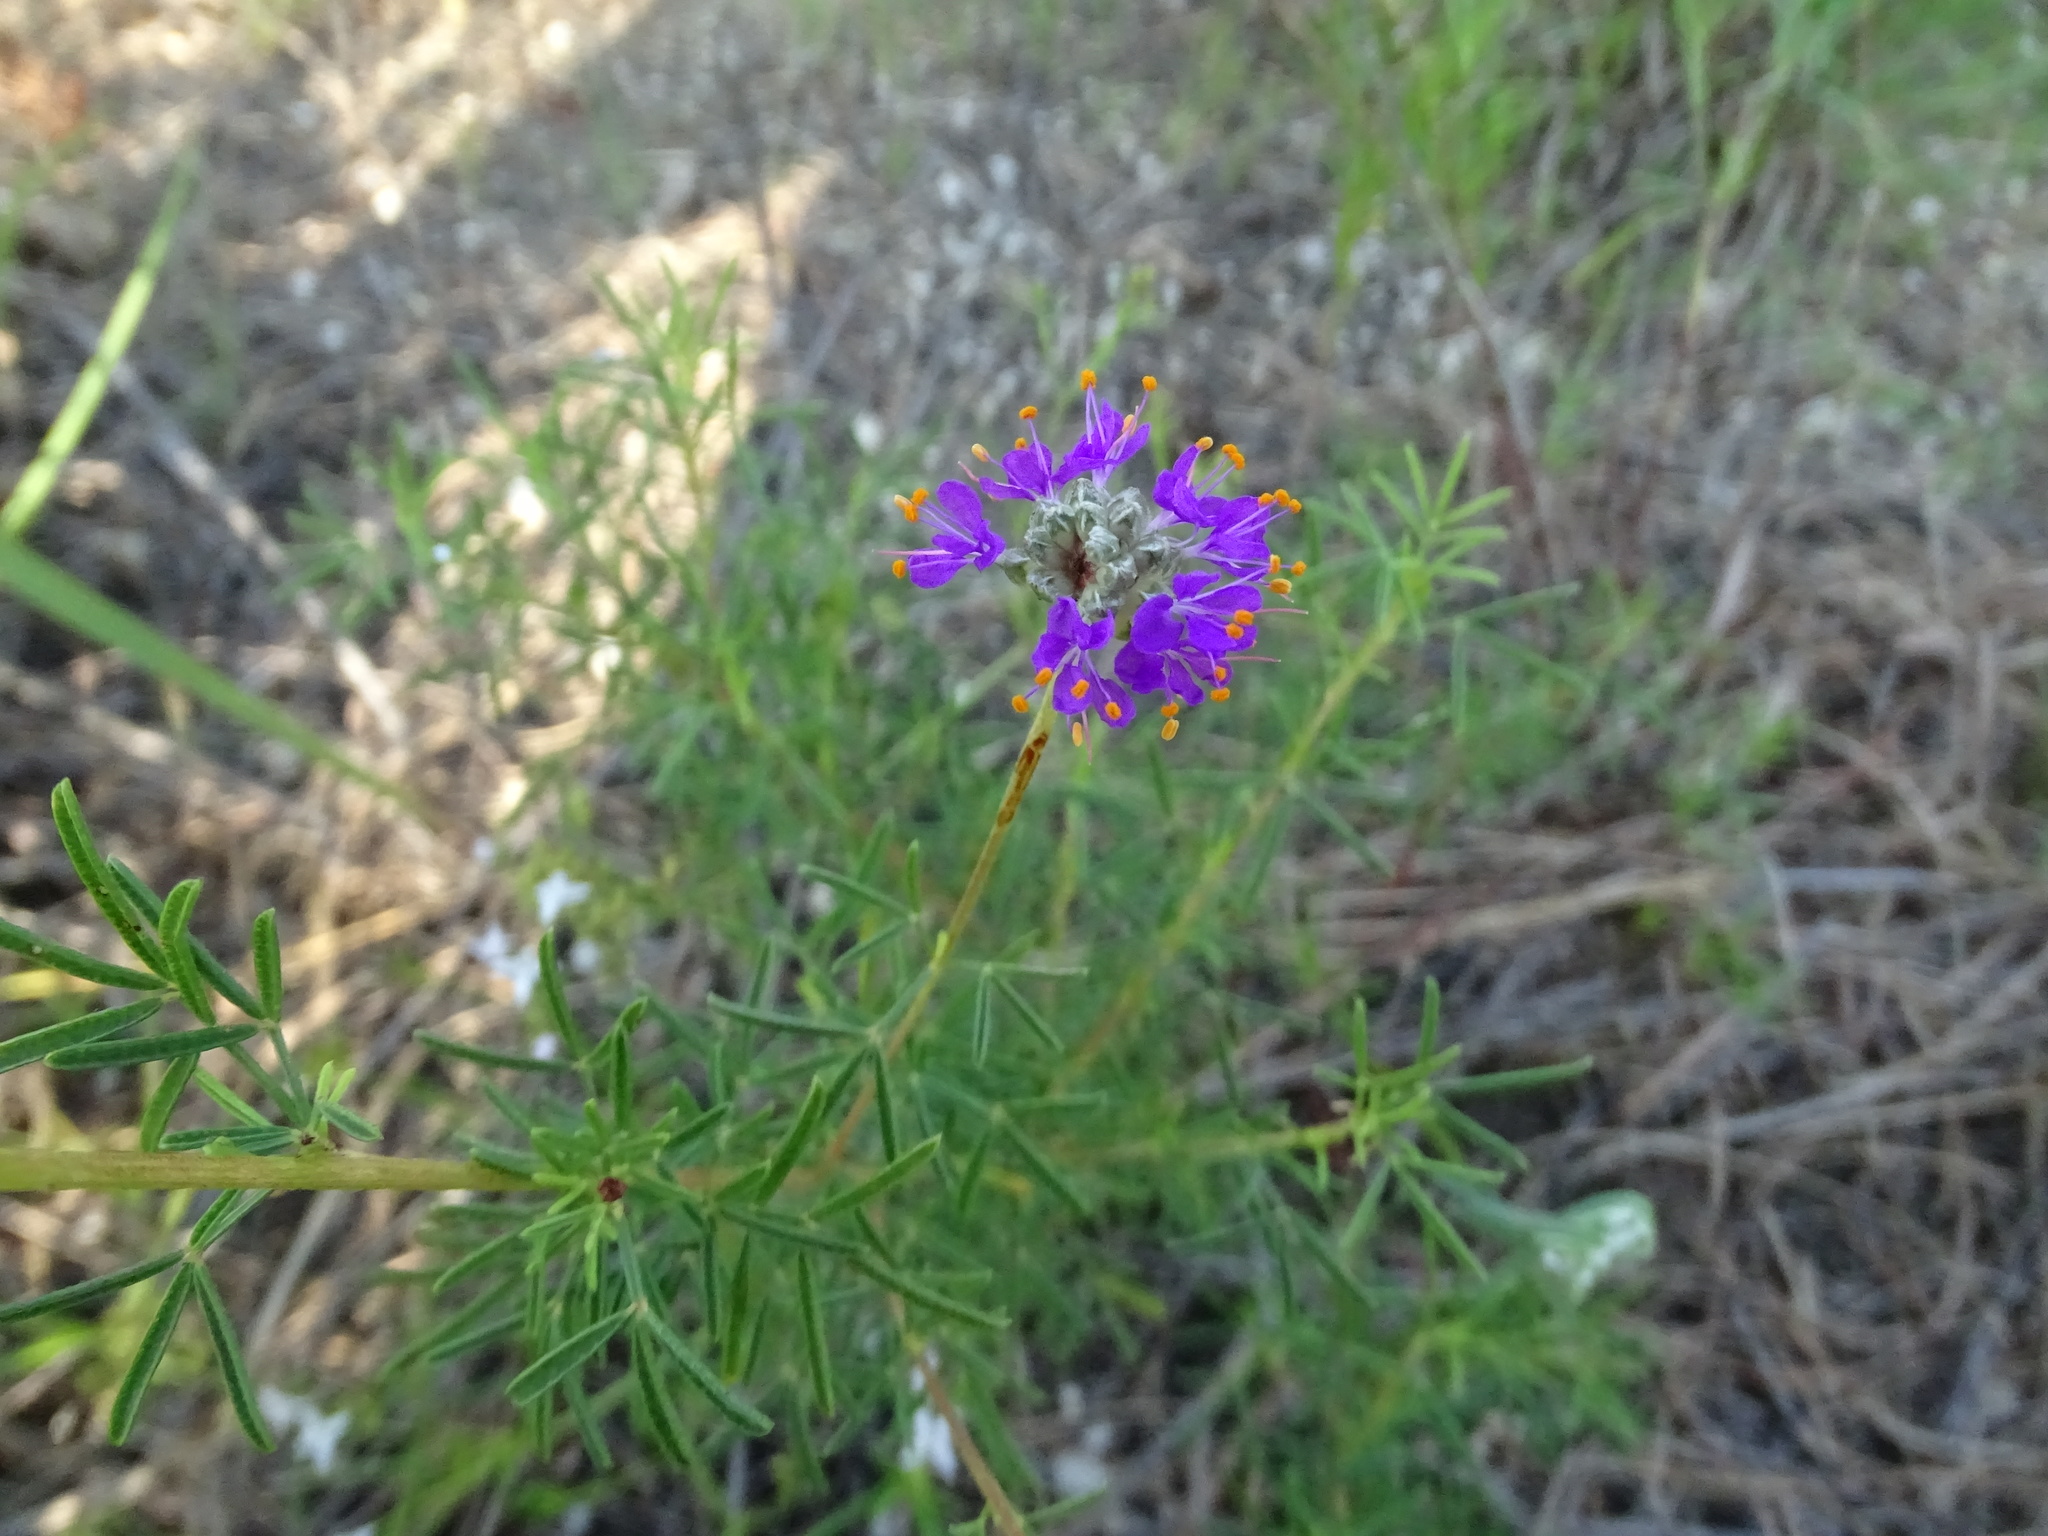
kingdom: Plantae
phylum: Tracheophyta
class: Magnoliopsida
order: Fabales
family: Fabaceae
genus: Dalea
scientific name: Dalea compacta
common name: Compact prairie-clover
